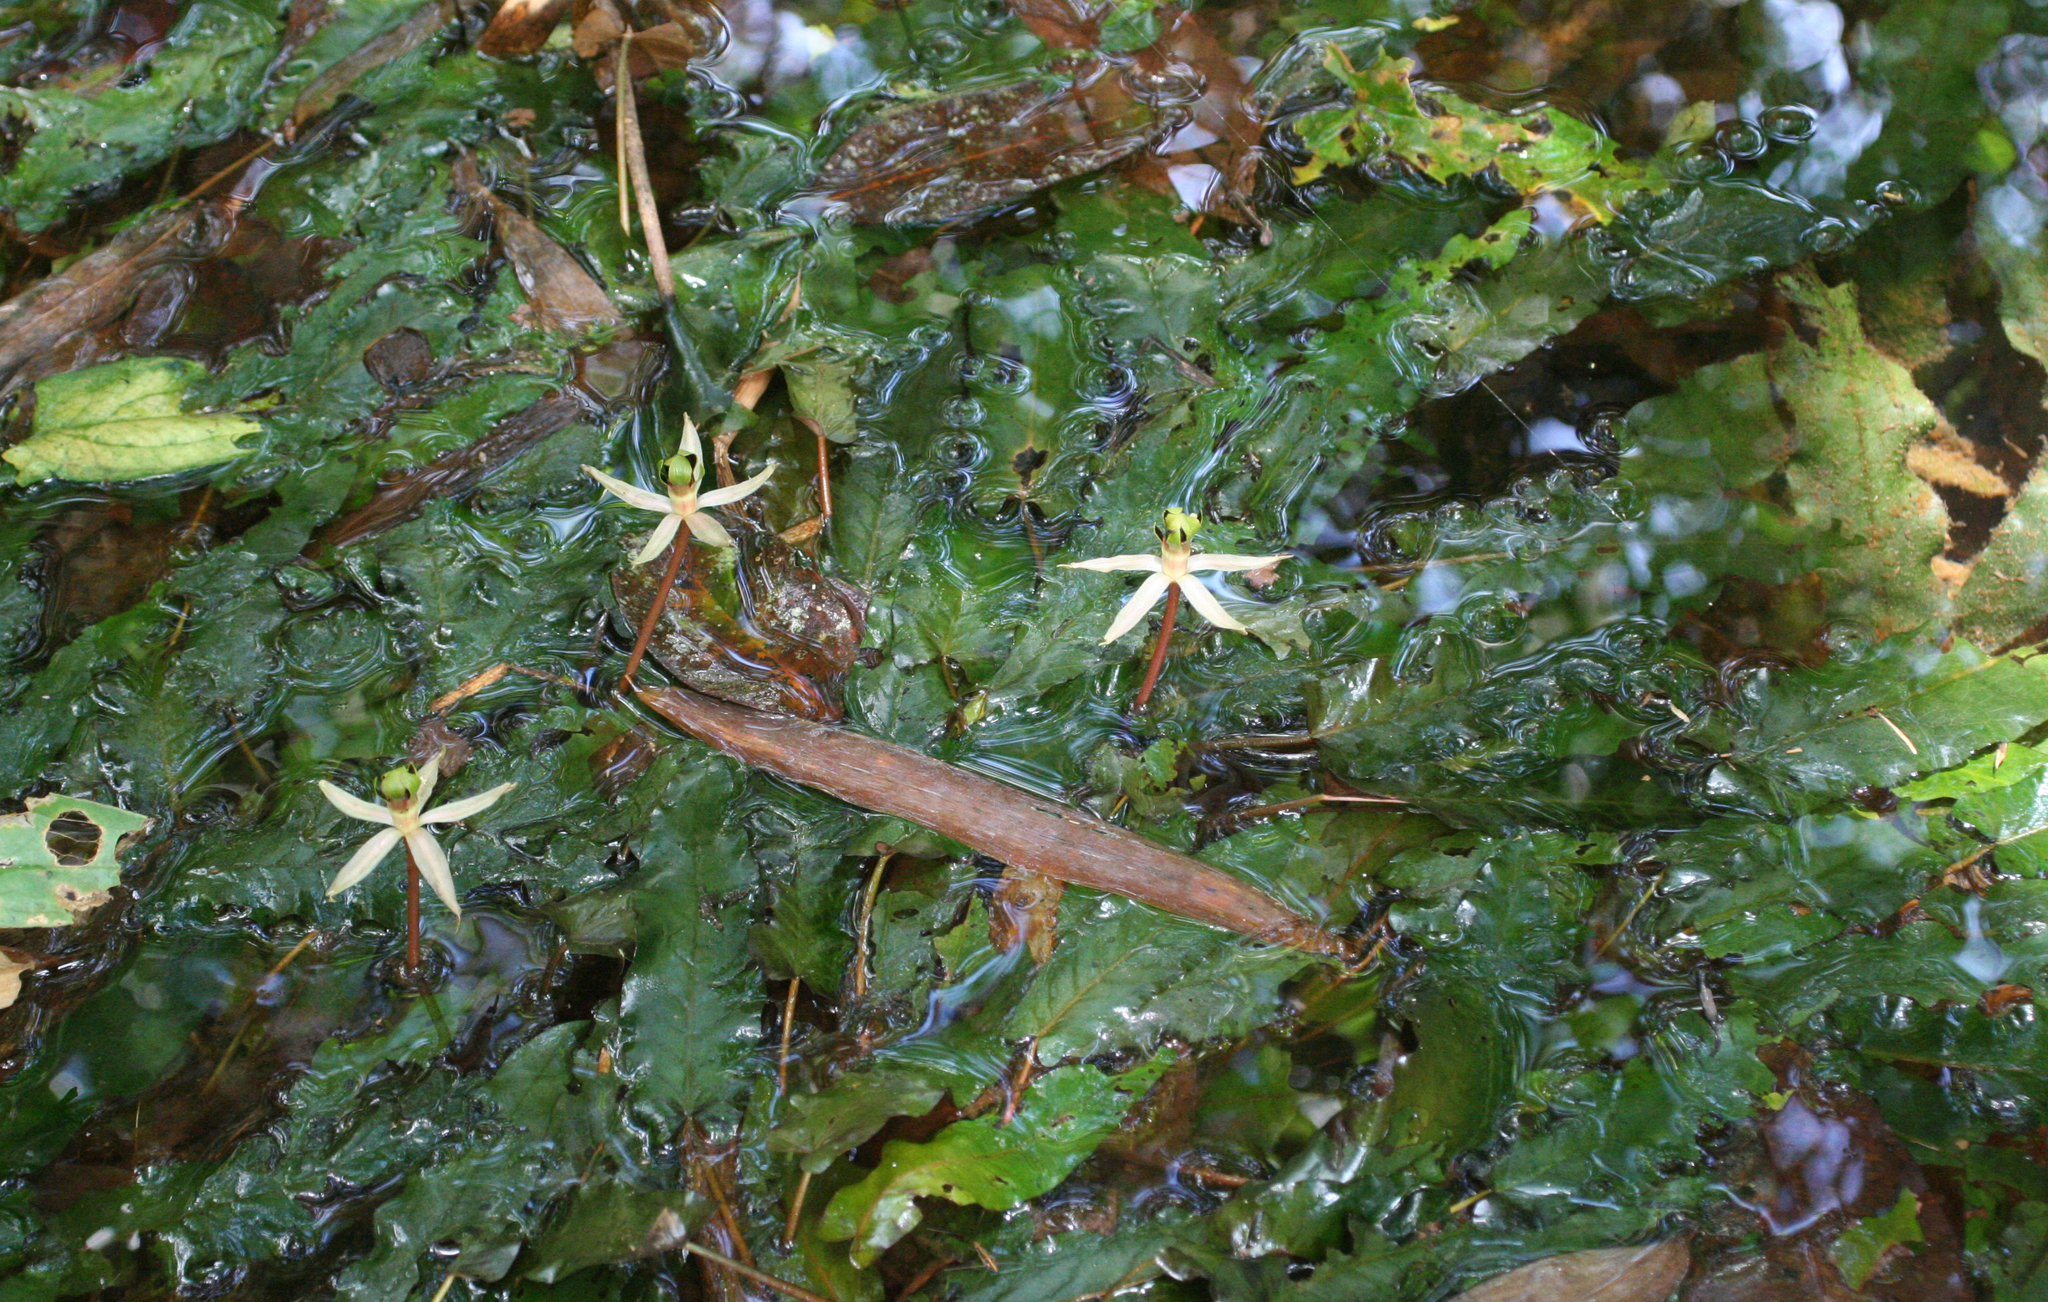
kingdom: Plantae
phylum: Tracheophyta
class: Magnoliopsida
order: Nymphaeales
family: Nymphaeaceae
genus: Barclaya
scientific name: Barclaya longifolia
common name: Orchid lily
